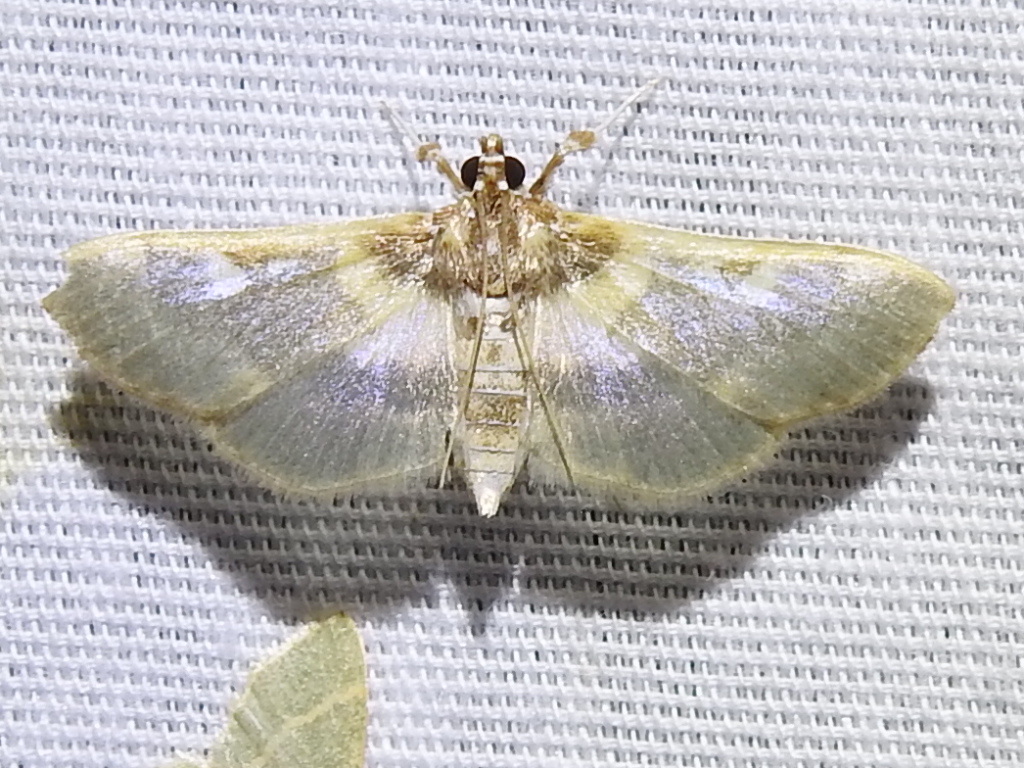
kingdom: Animalia
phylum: Arthropoda
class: Insecta
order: Lepidoptera
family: Crambidae
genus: Apilocrocis
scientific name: Apilocrocis brumalis
